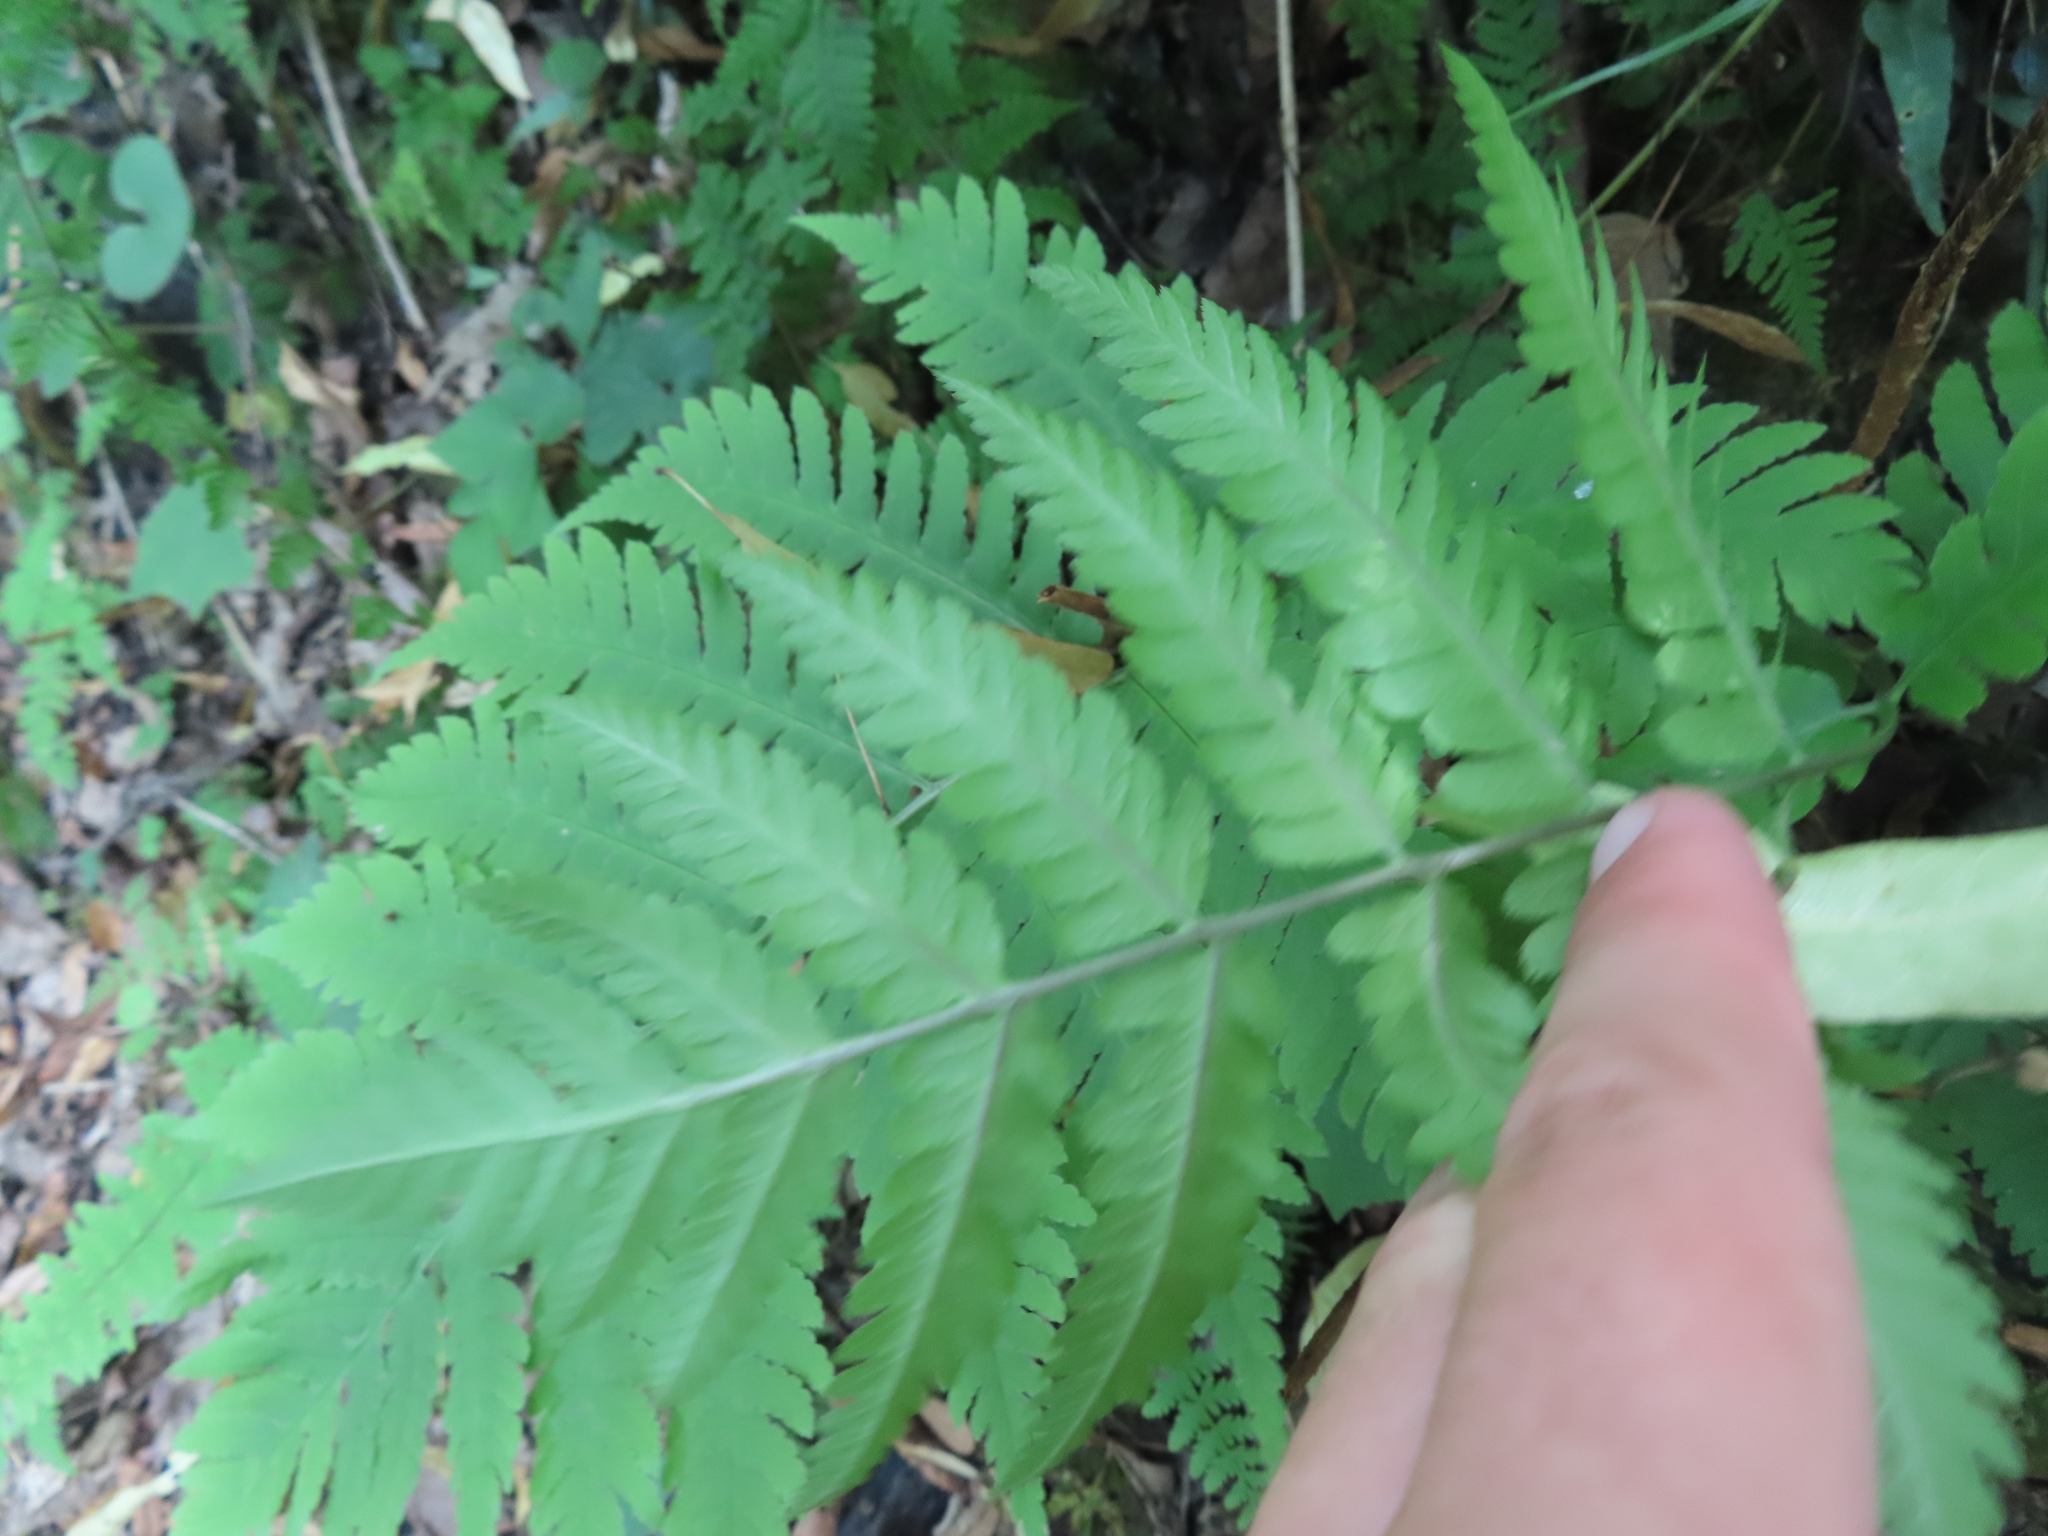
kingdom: Plantae
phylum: Tracheophyta
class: Polypodiopsida
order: Polypodiales
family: Dryopteridaceae
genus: Dryopteris
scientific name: Dryopteris goldieana
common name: Goldie's fern
